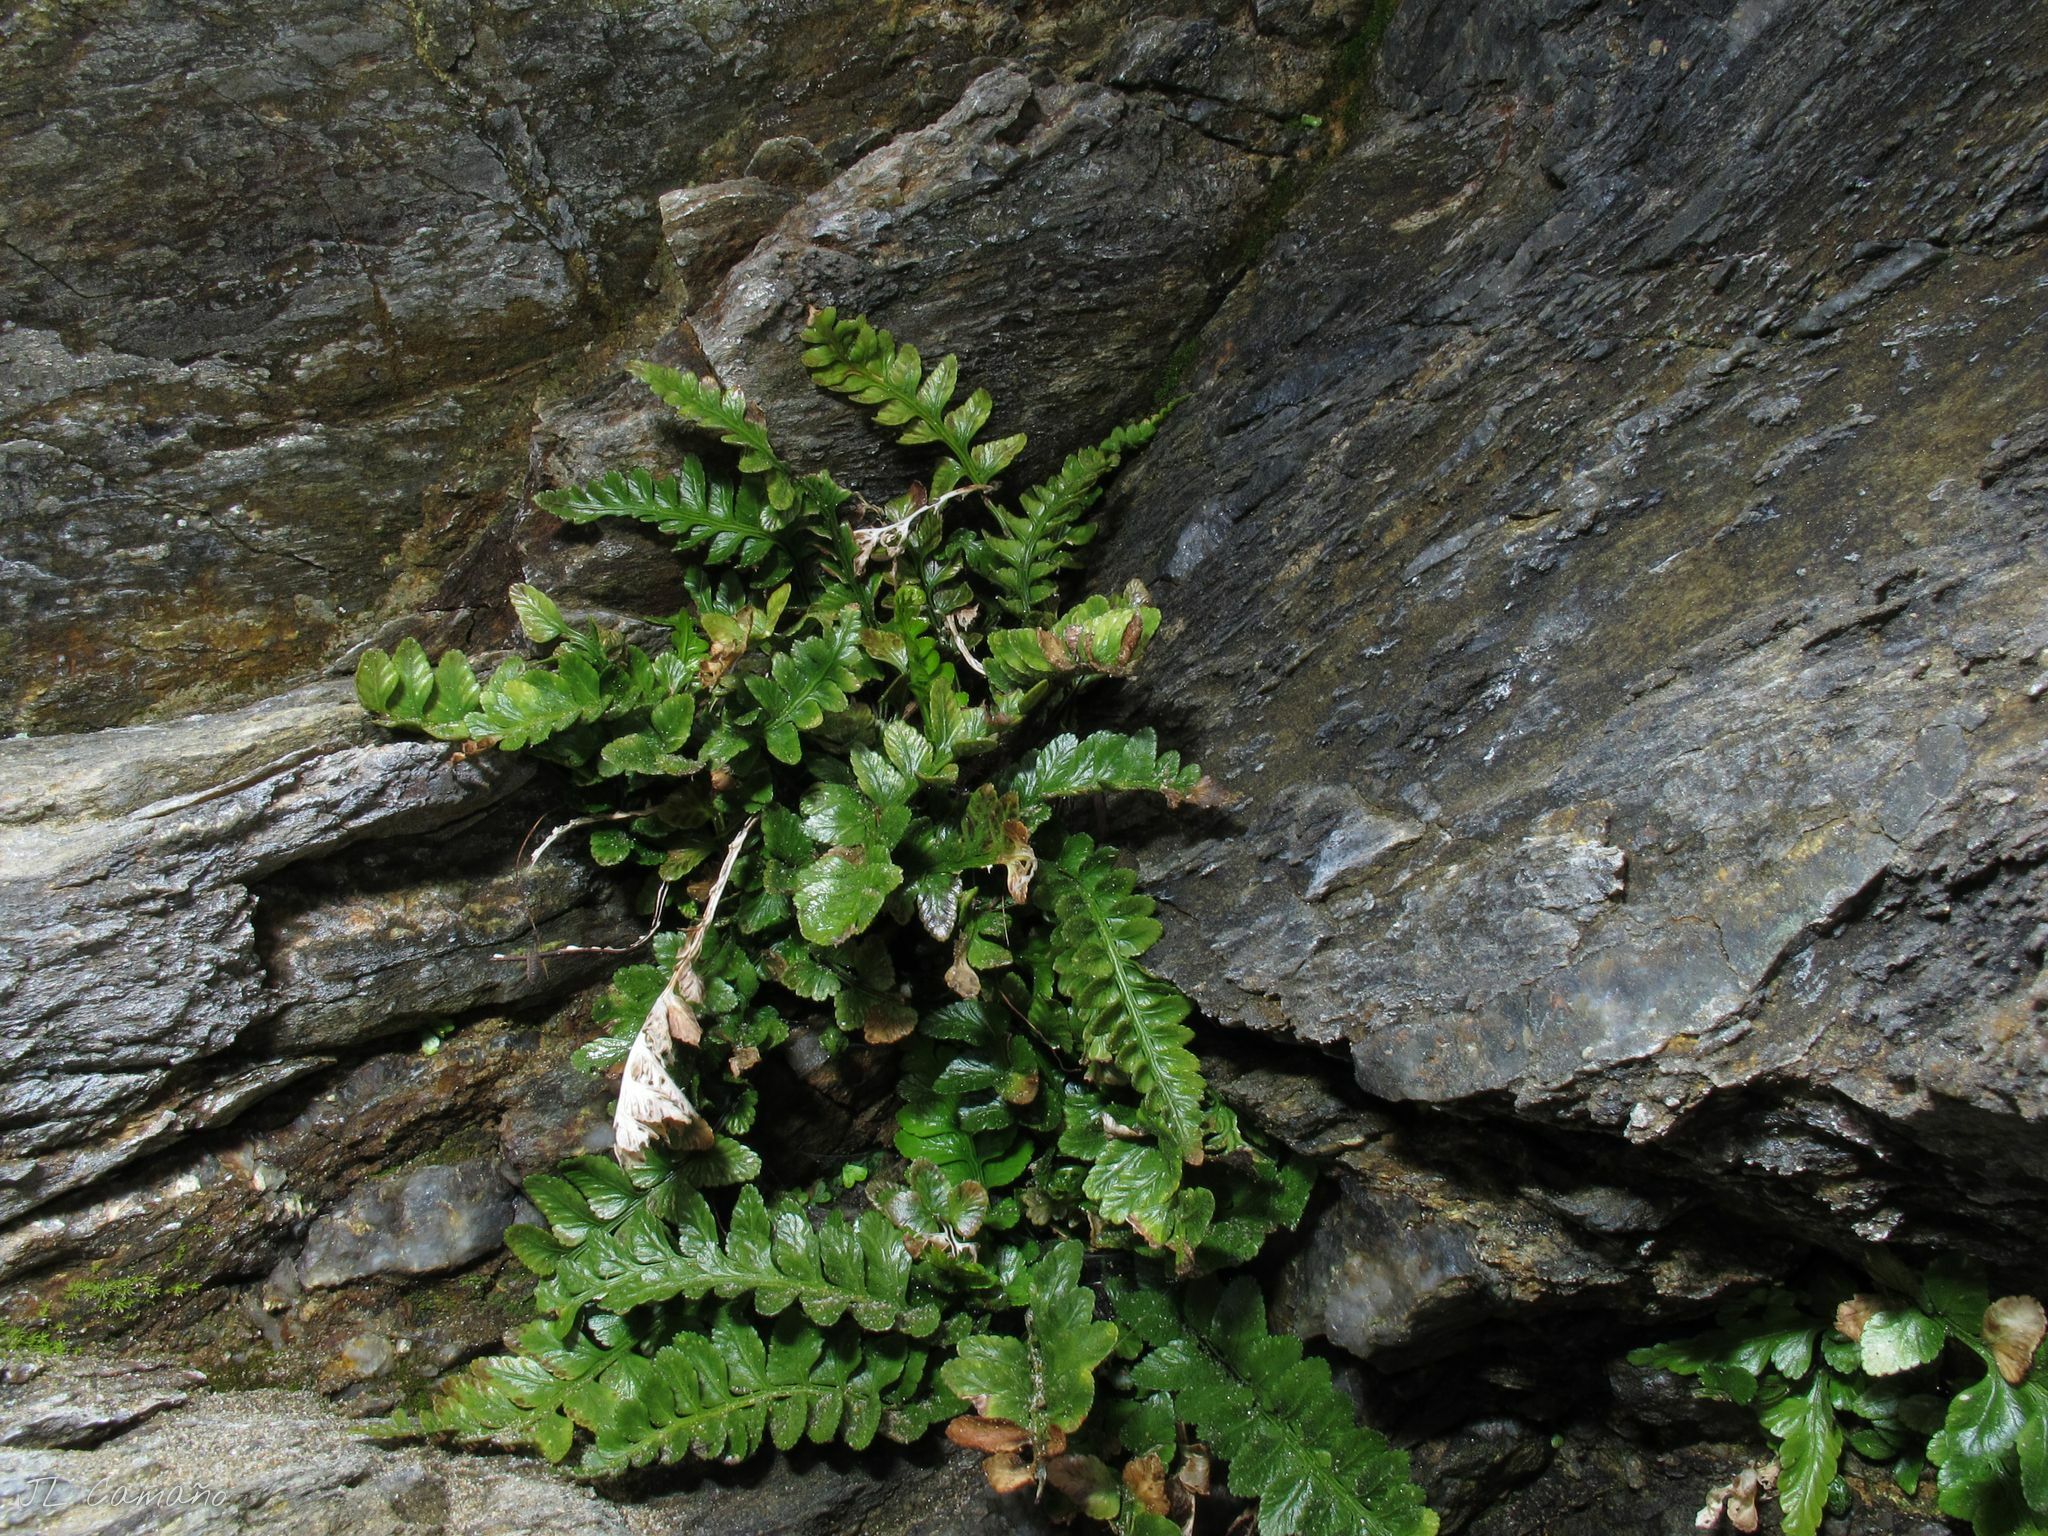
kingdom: Plantae
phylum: Tracheophyta
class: Polypodiopsida
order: Polypodiales
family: Aspleniaceae
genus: Asplenium
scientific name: Asplenium marinum
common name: Sea spleenwort
